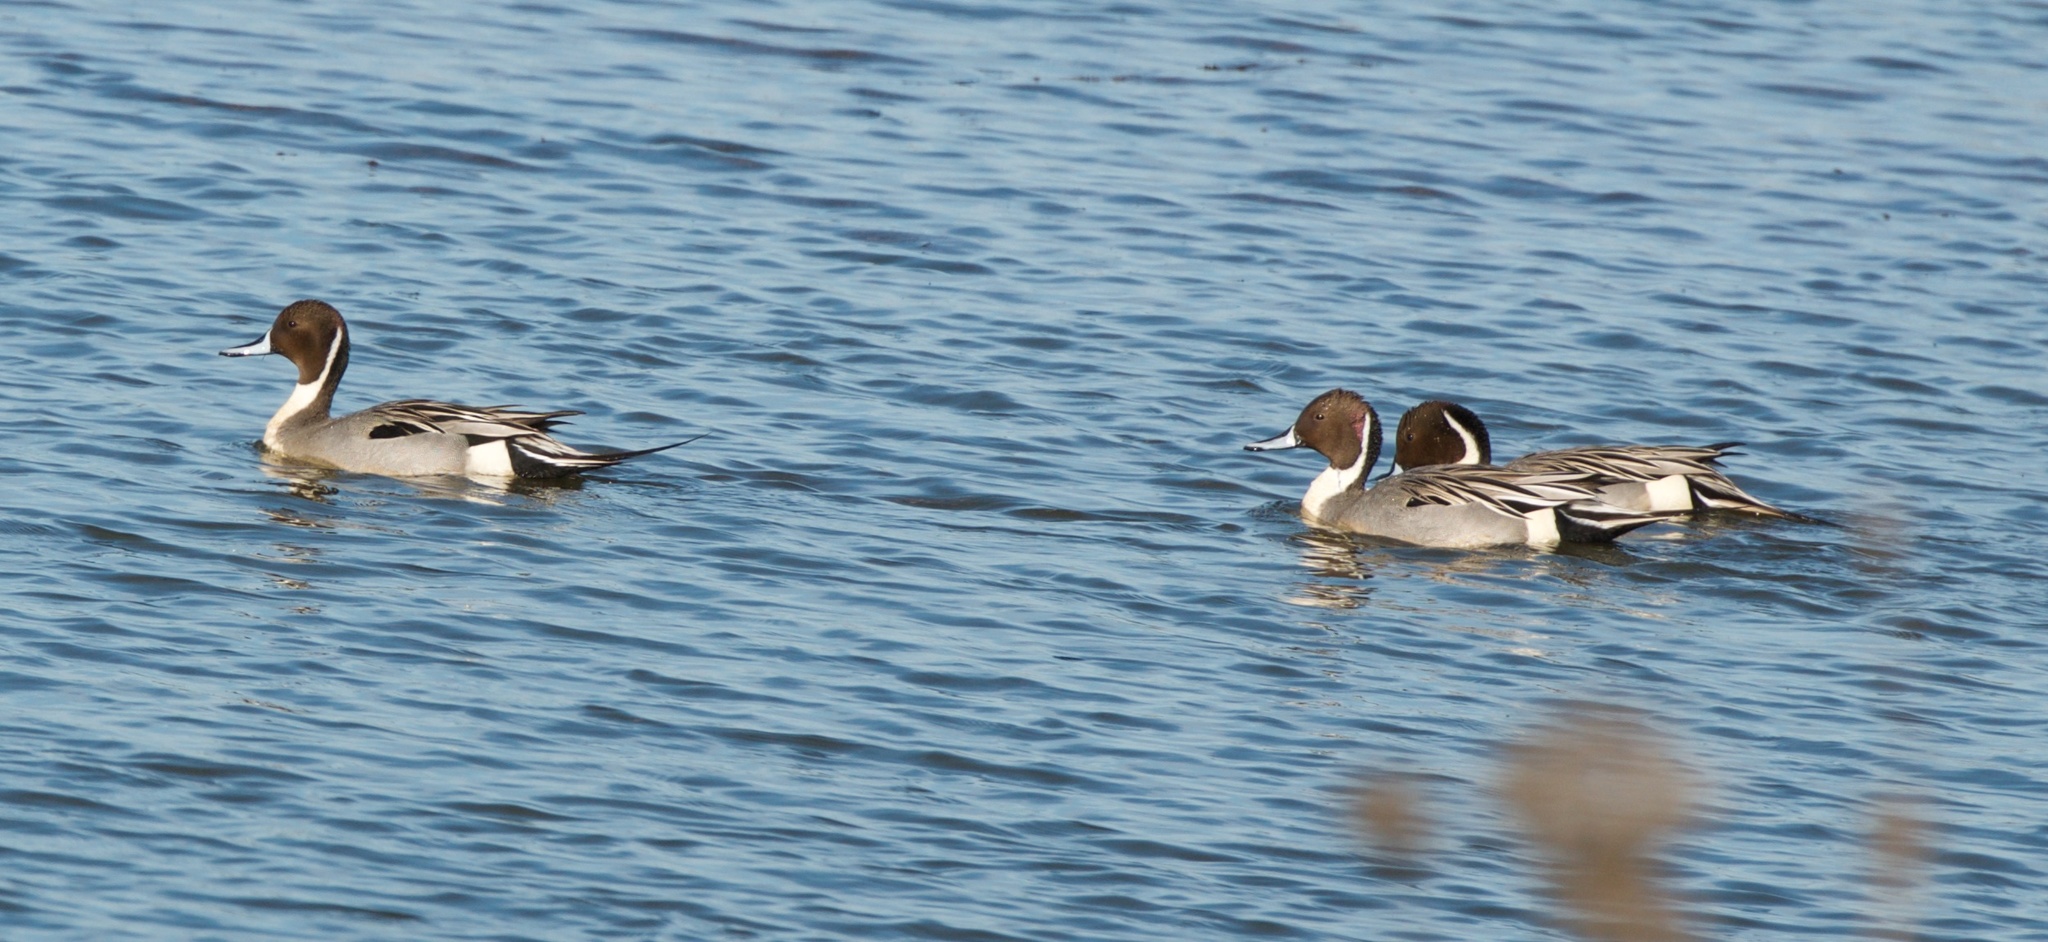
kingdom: Animalia
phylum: Chordata
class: Aves
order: Anseriformes
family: Anatidae
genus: Anas
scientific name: Anas acuta
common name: Northern pintail
